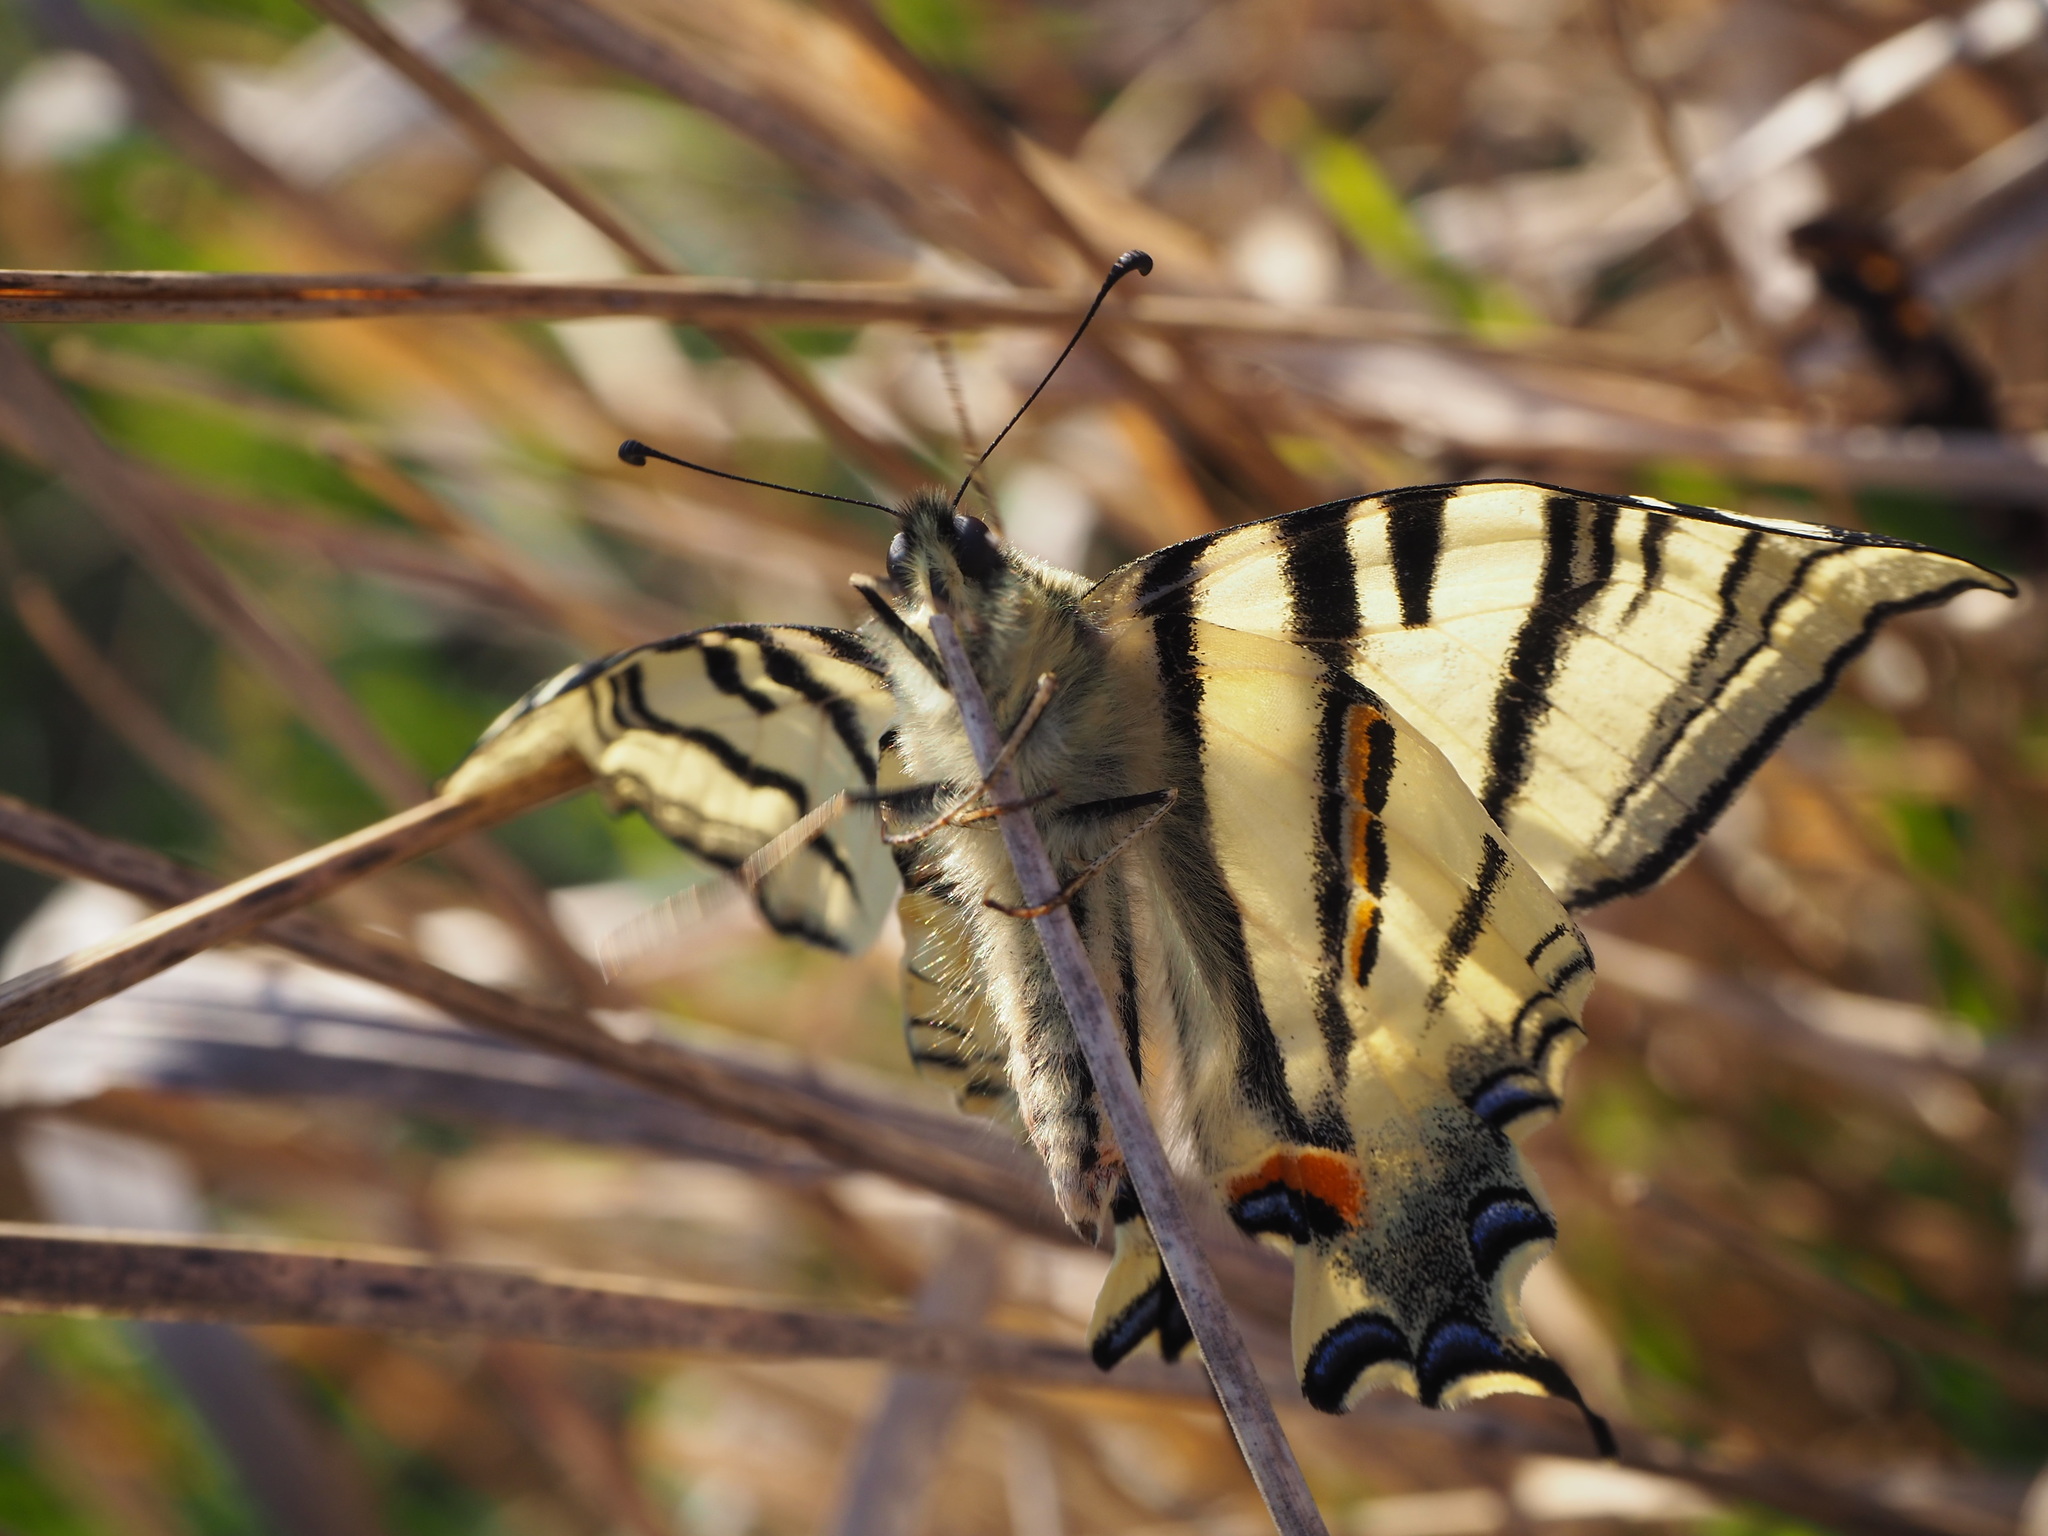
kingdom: Animalia
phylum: Arthropoda
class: Insecta
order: Lepidoptera
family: Papilionidae
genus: Iphiclides
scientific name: Iphiclides podalirius
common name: Scarce swallowtail
